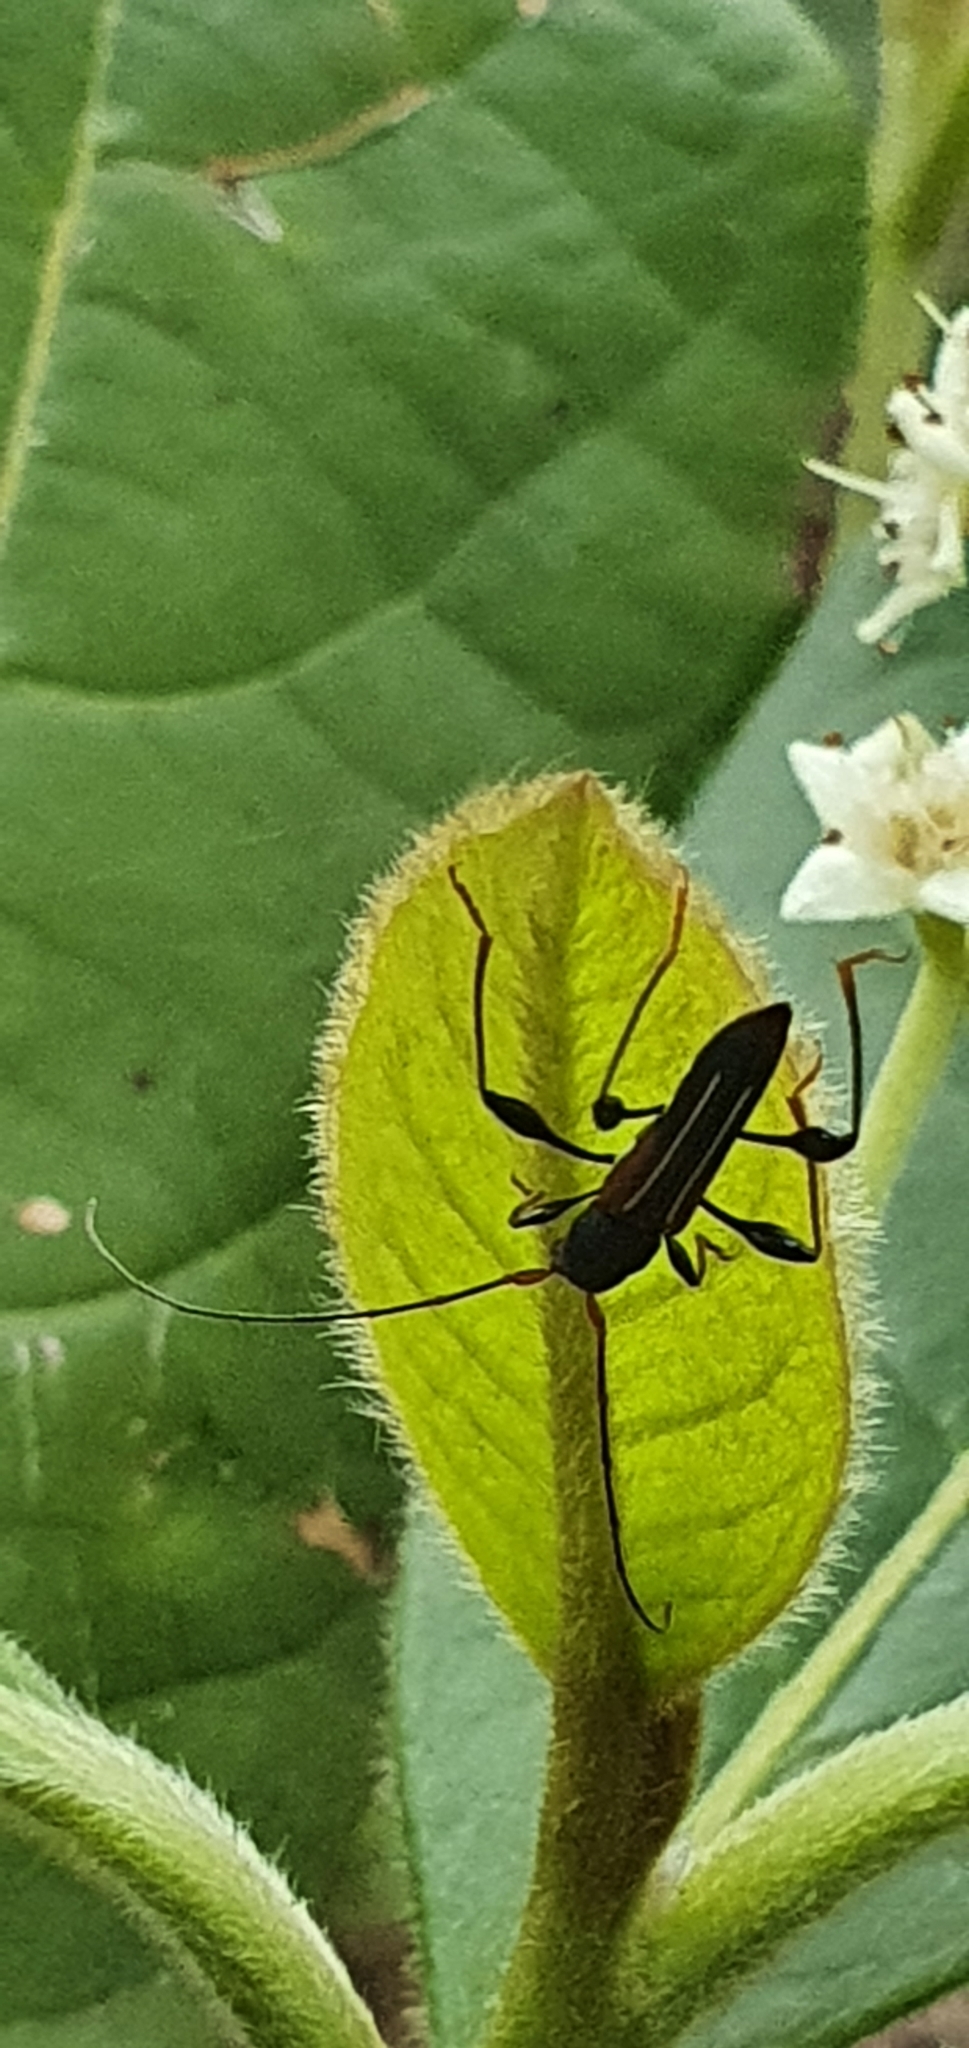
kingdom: Animalia
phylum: Arthropoda
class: Insecta
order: Coleoptera
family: Cerambycidae
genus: Amphirhoe
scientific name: Amphirhoe sloanei
